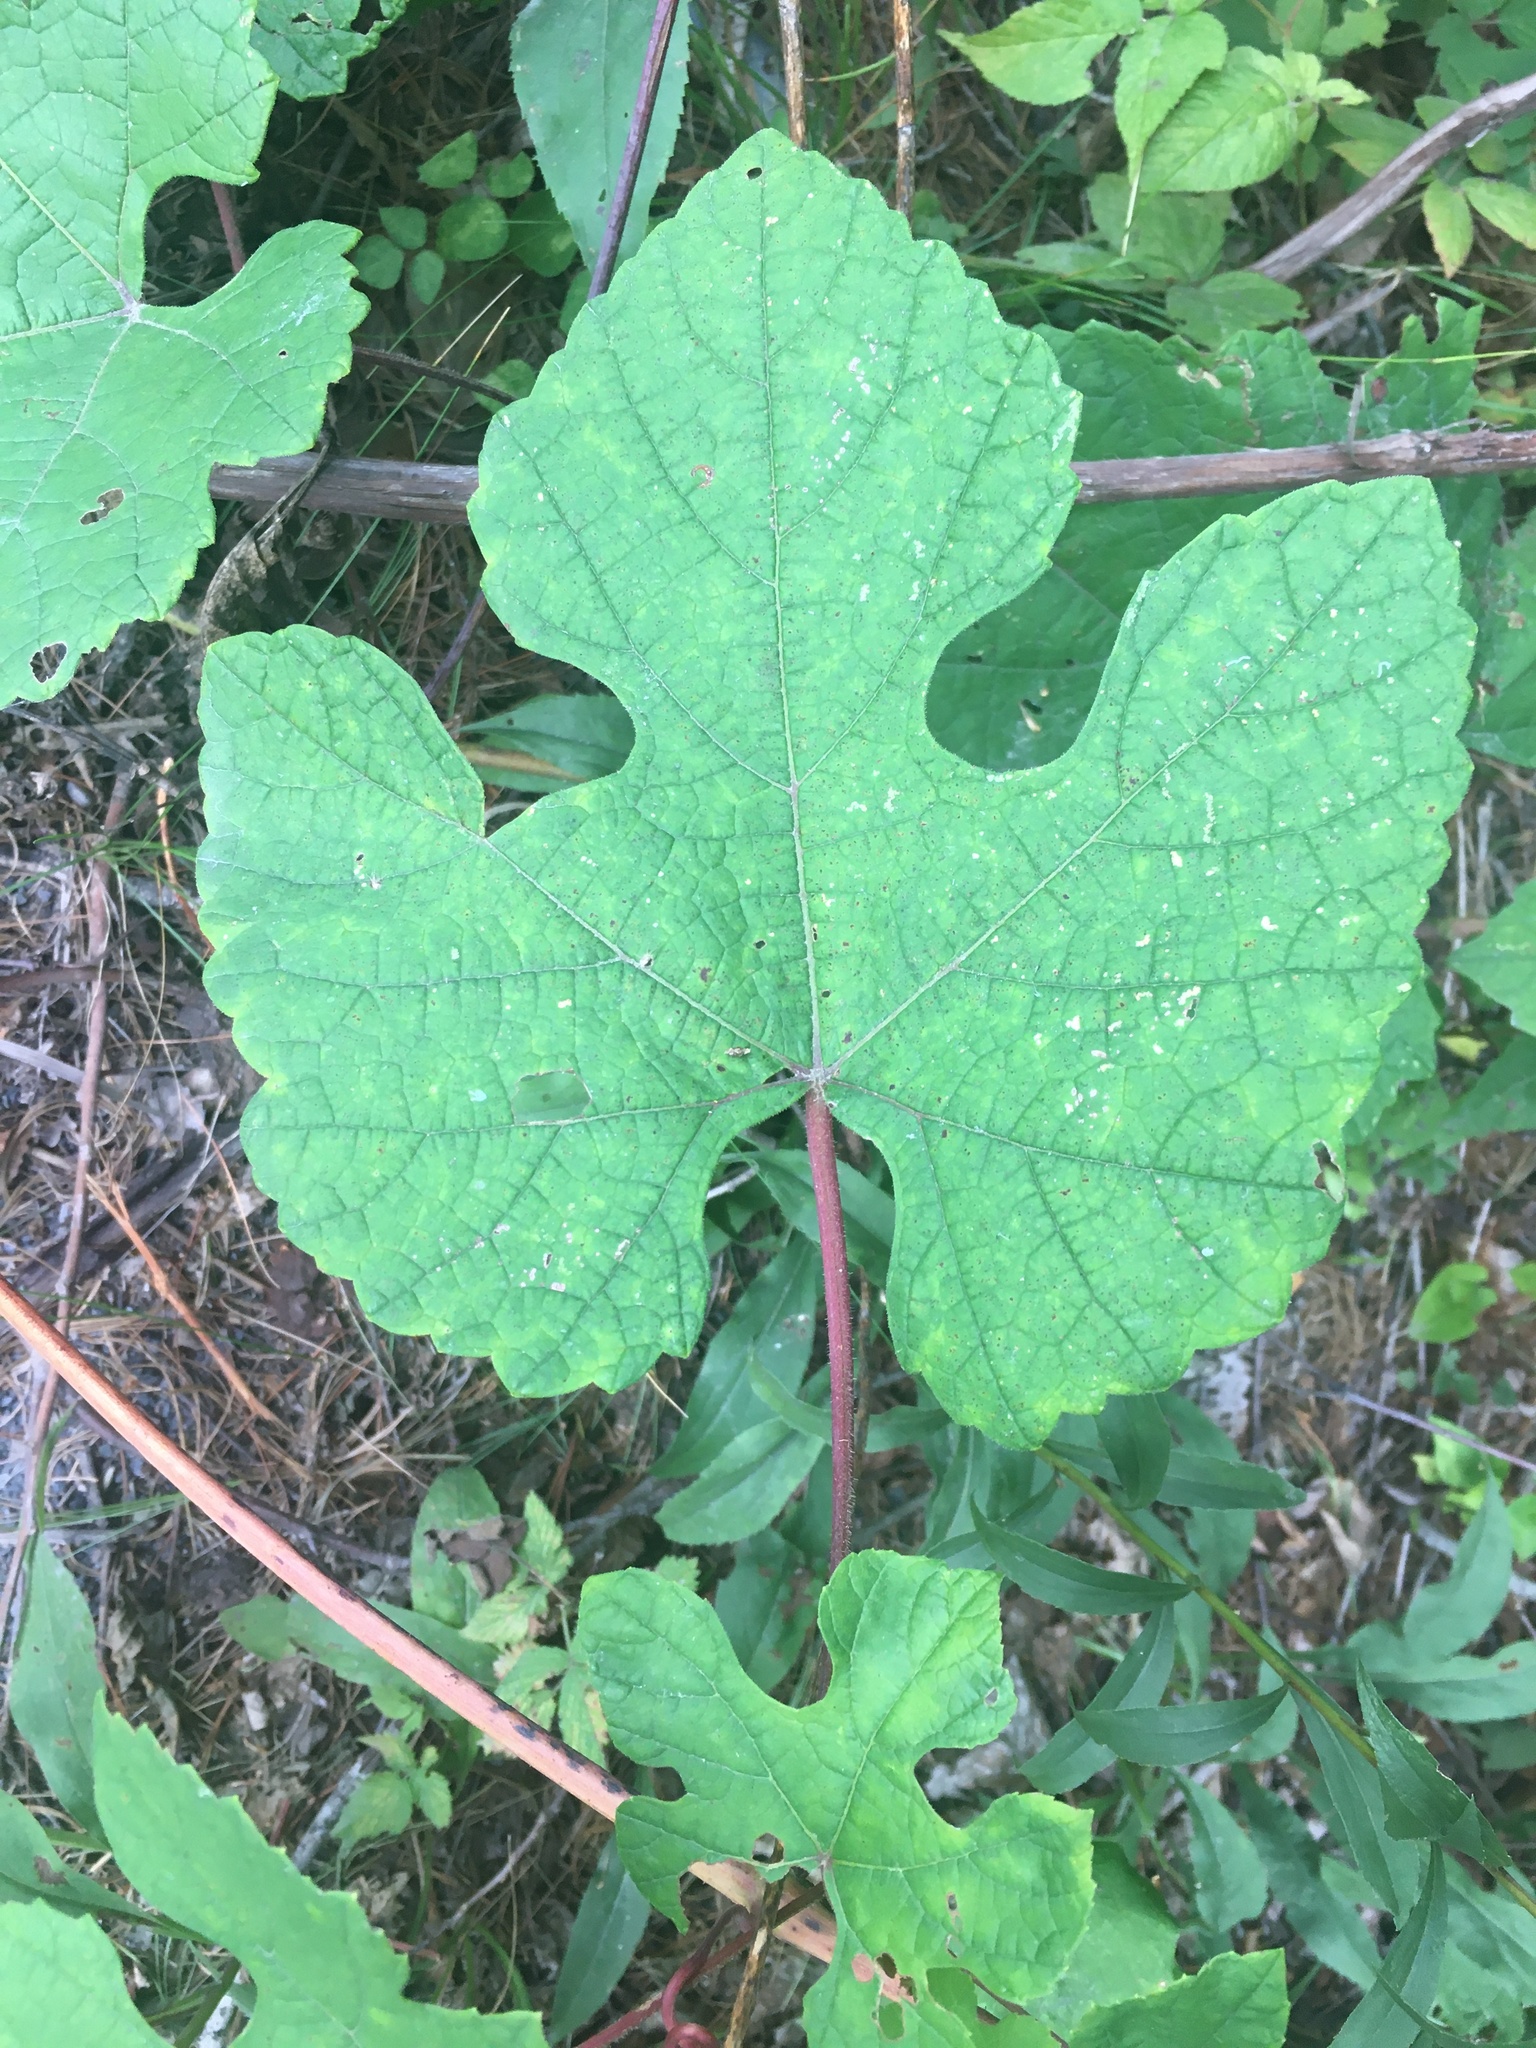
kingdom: Plantae
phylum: Tracheophyta
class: Magnoliopsida
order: Vitales
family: Vitaceae
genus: Vitis
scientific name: Vitis aestivalis
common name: Pigeon grape
